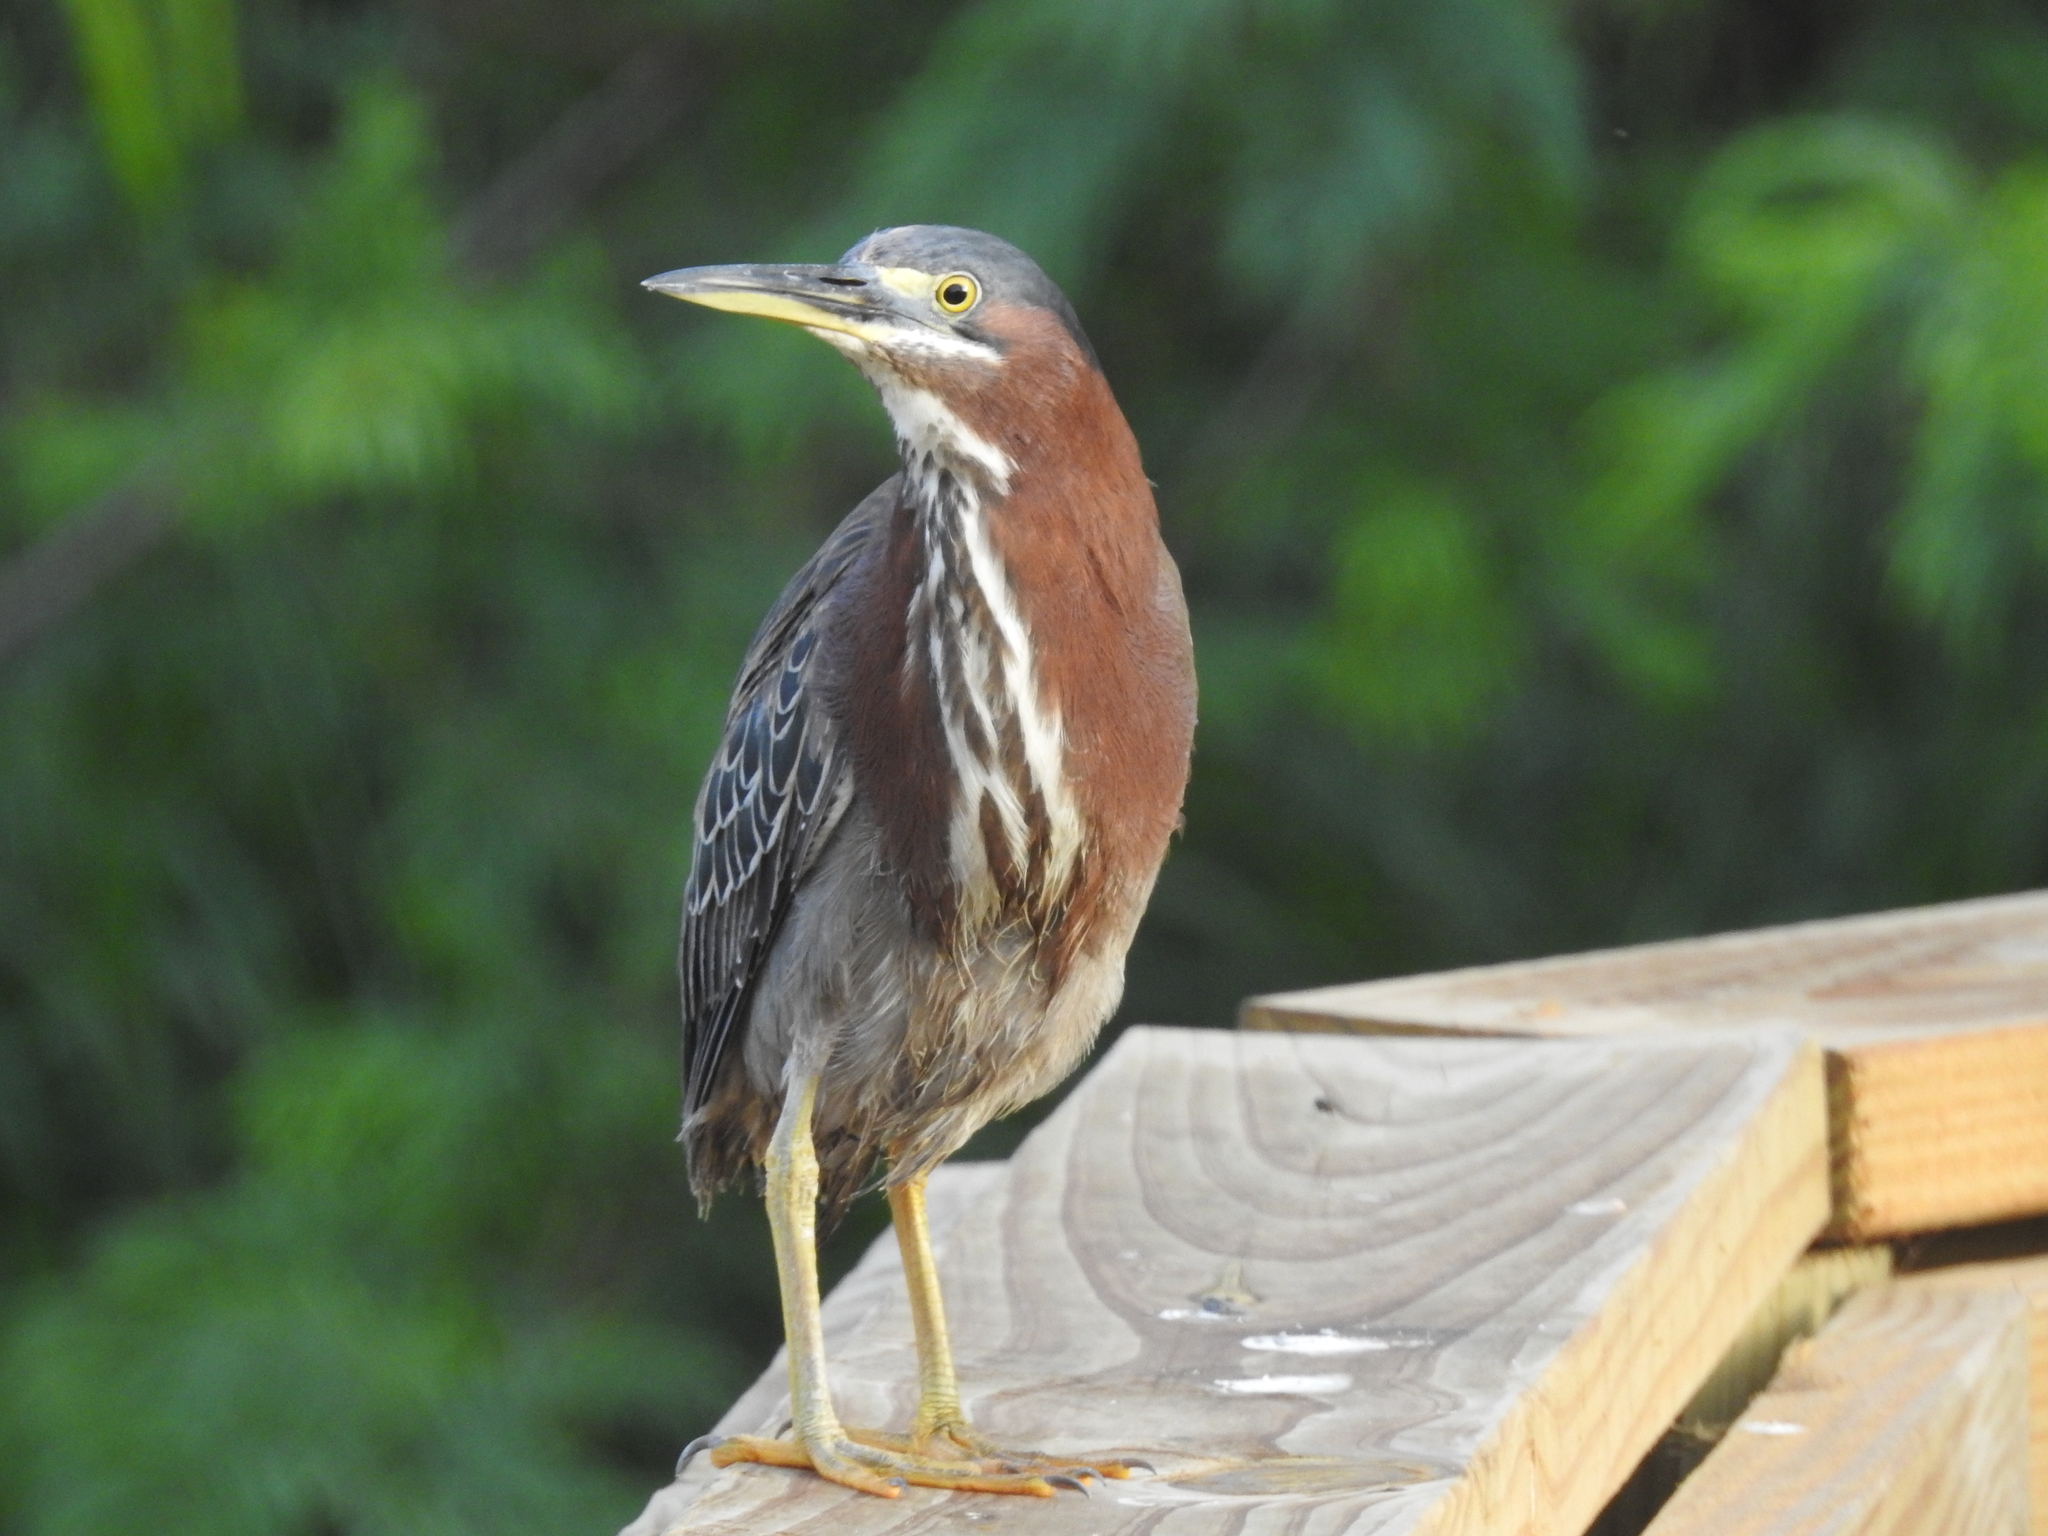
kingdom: Animalia
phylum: Chordata
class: Aves
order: Pelecaniformes
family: Ardeidae
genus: Butorides
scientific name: Butorides virescens
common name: Green heron
